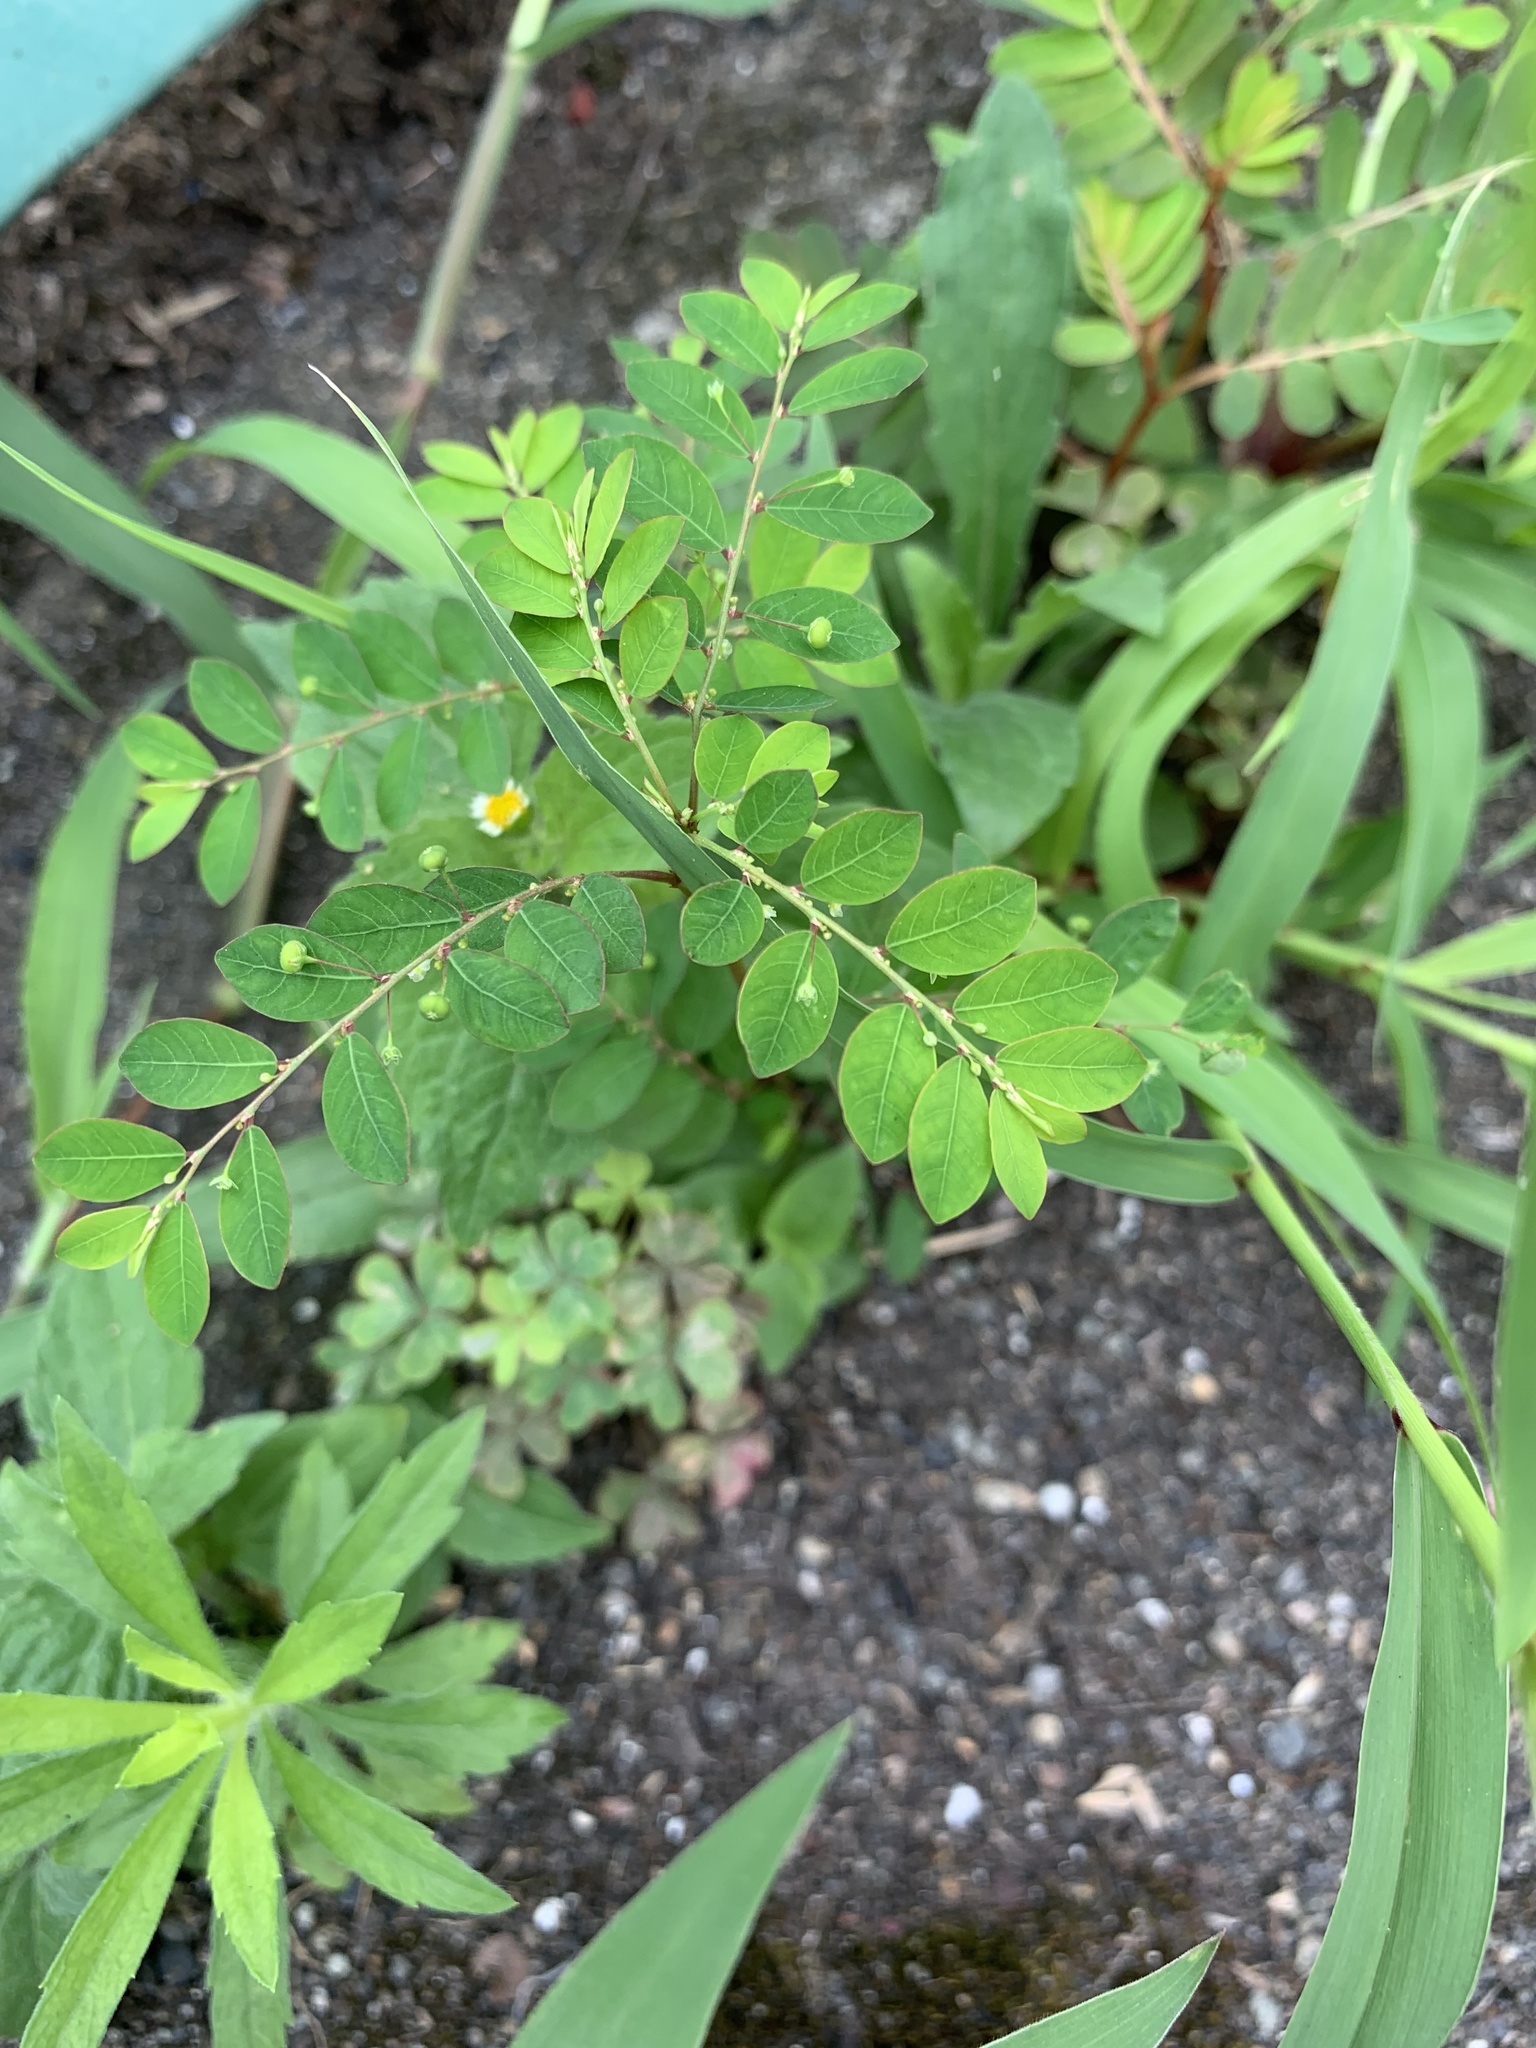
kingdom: Plantae
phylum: Tracheophyta
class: Magnoliopsida
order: Malpighiales
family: Phyllanthaceae
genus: Phyllanthus
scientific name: Phyllanthus tenellus
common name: Mascarene island leaf-flower
